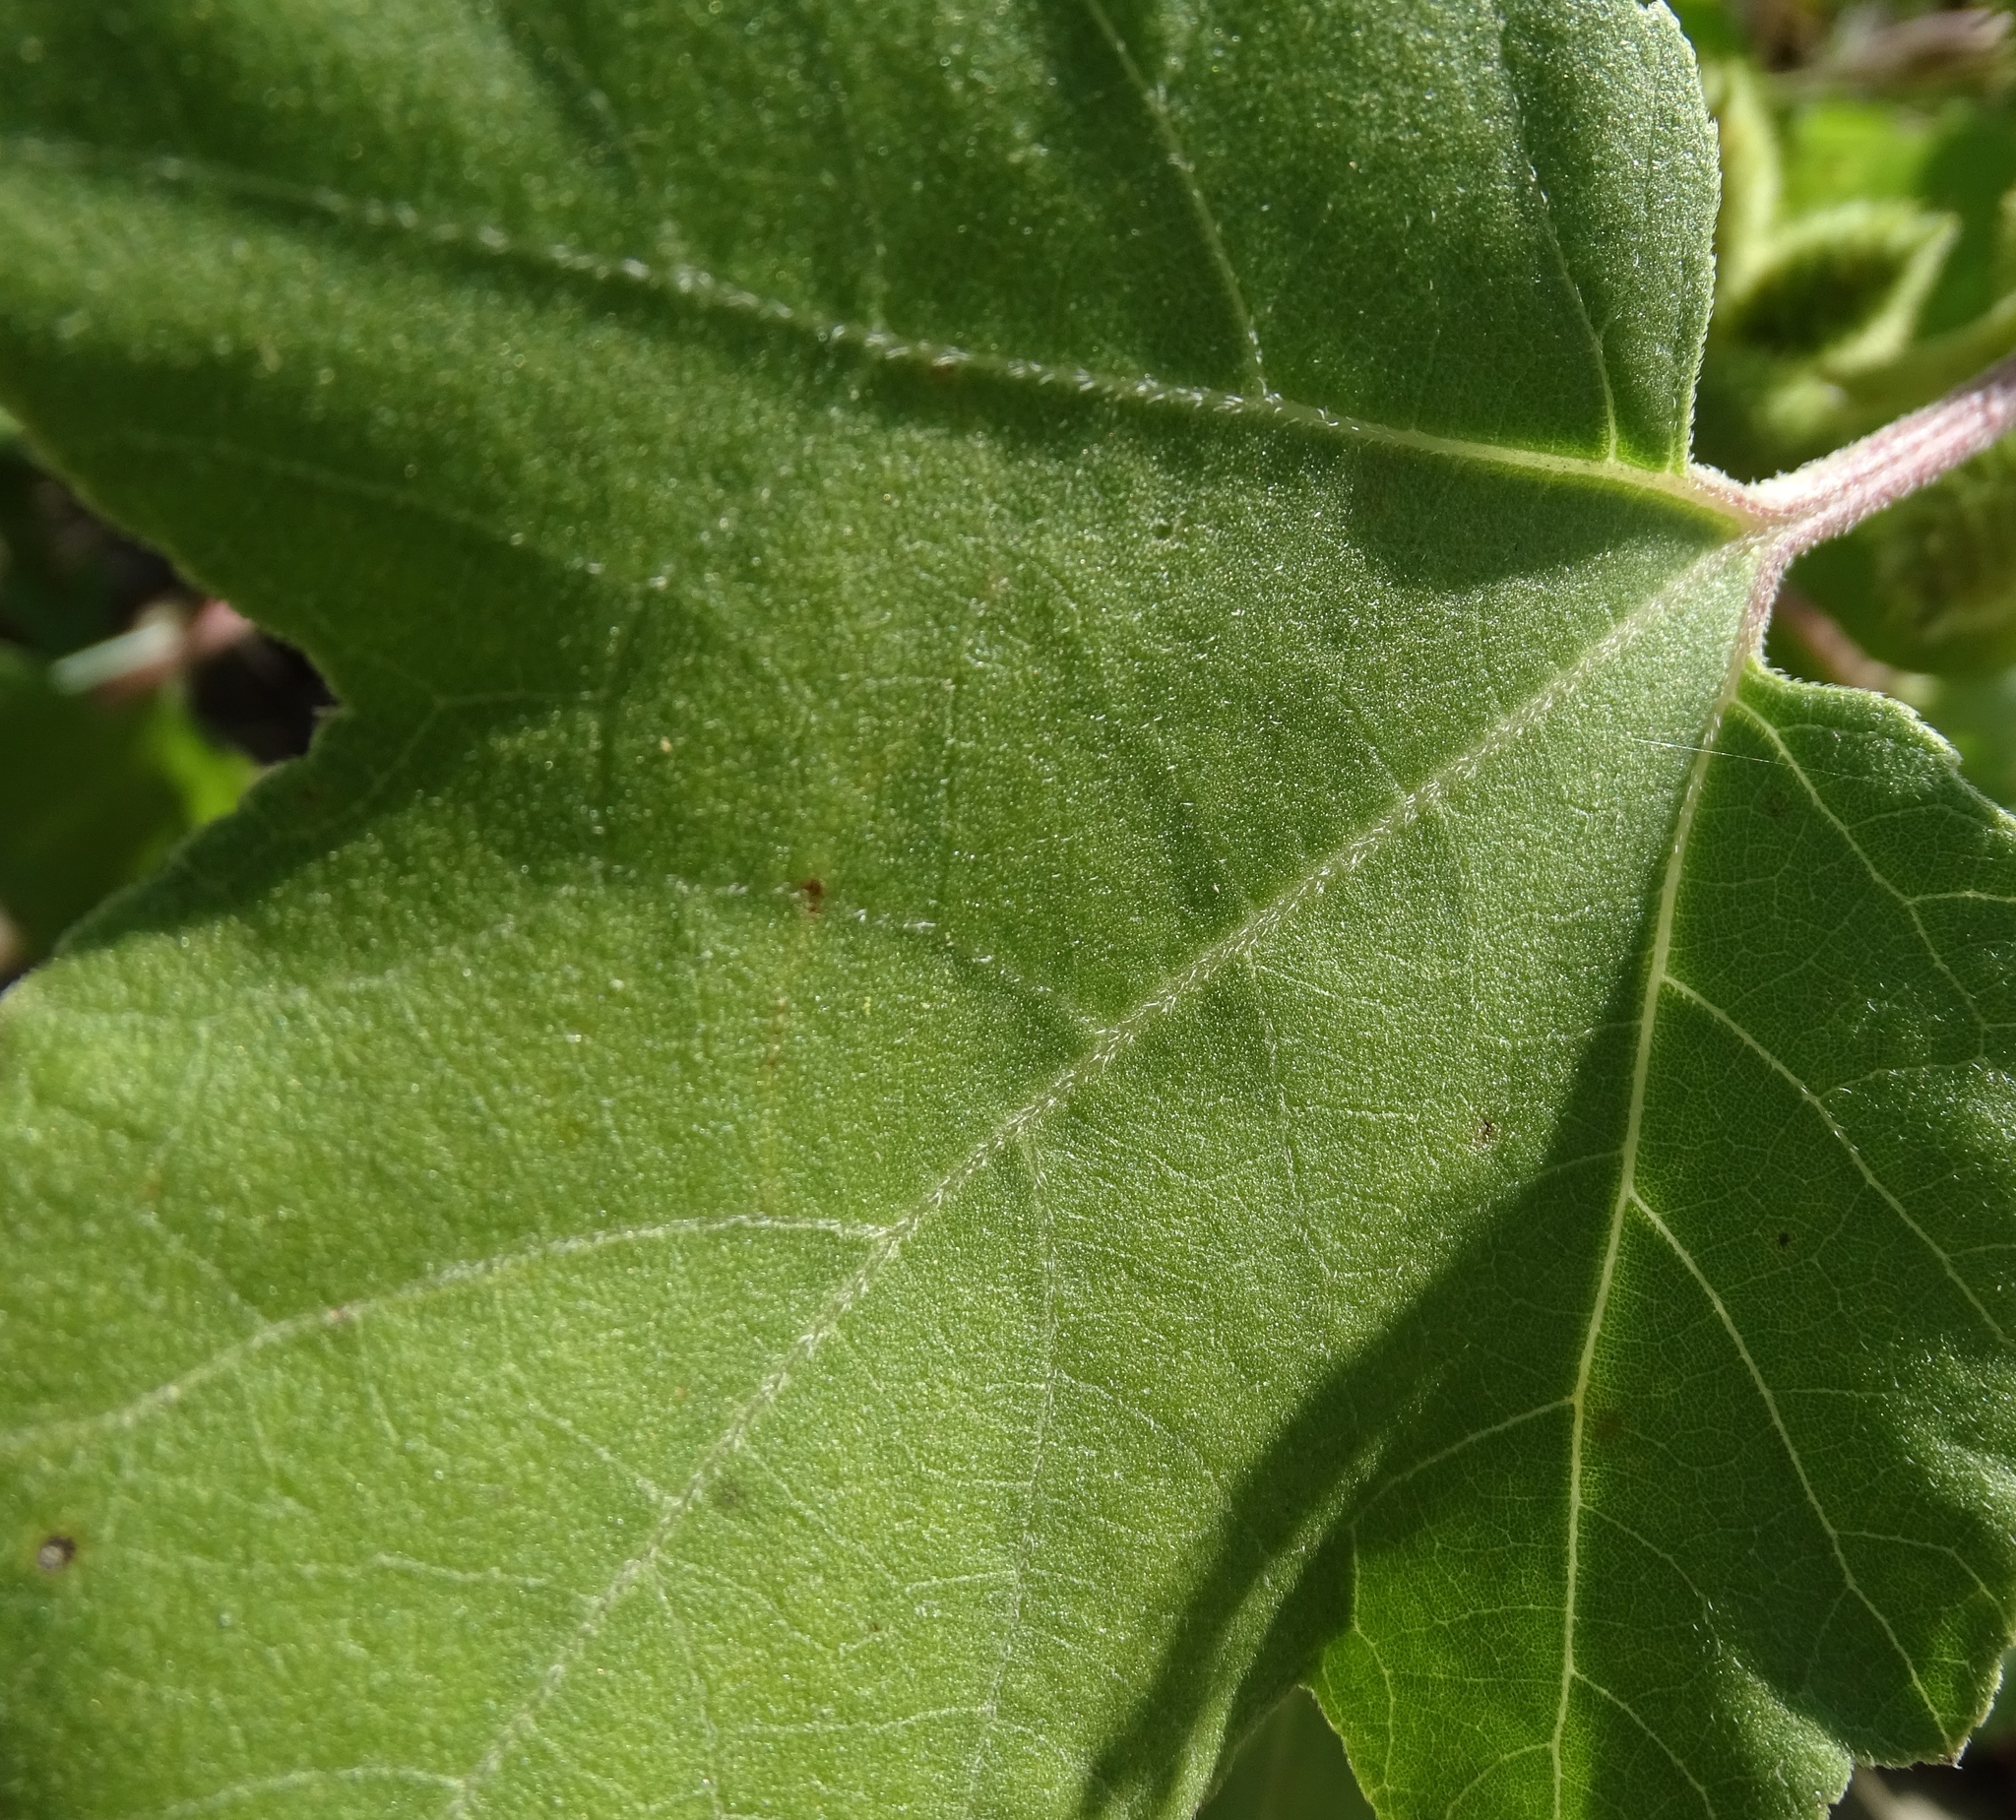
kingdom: Plantae
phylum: Tracheophyta
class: Magnoliopsida
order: Asterales
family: Asteraceae
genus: Xanthium
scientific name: Xanthium strumarium
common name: Rough cocklebur
